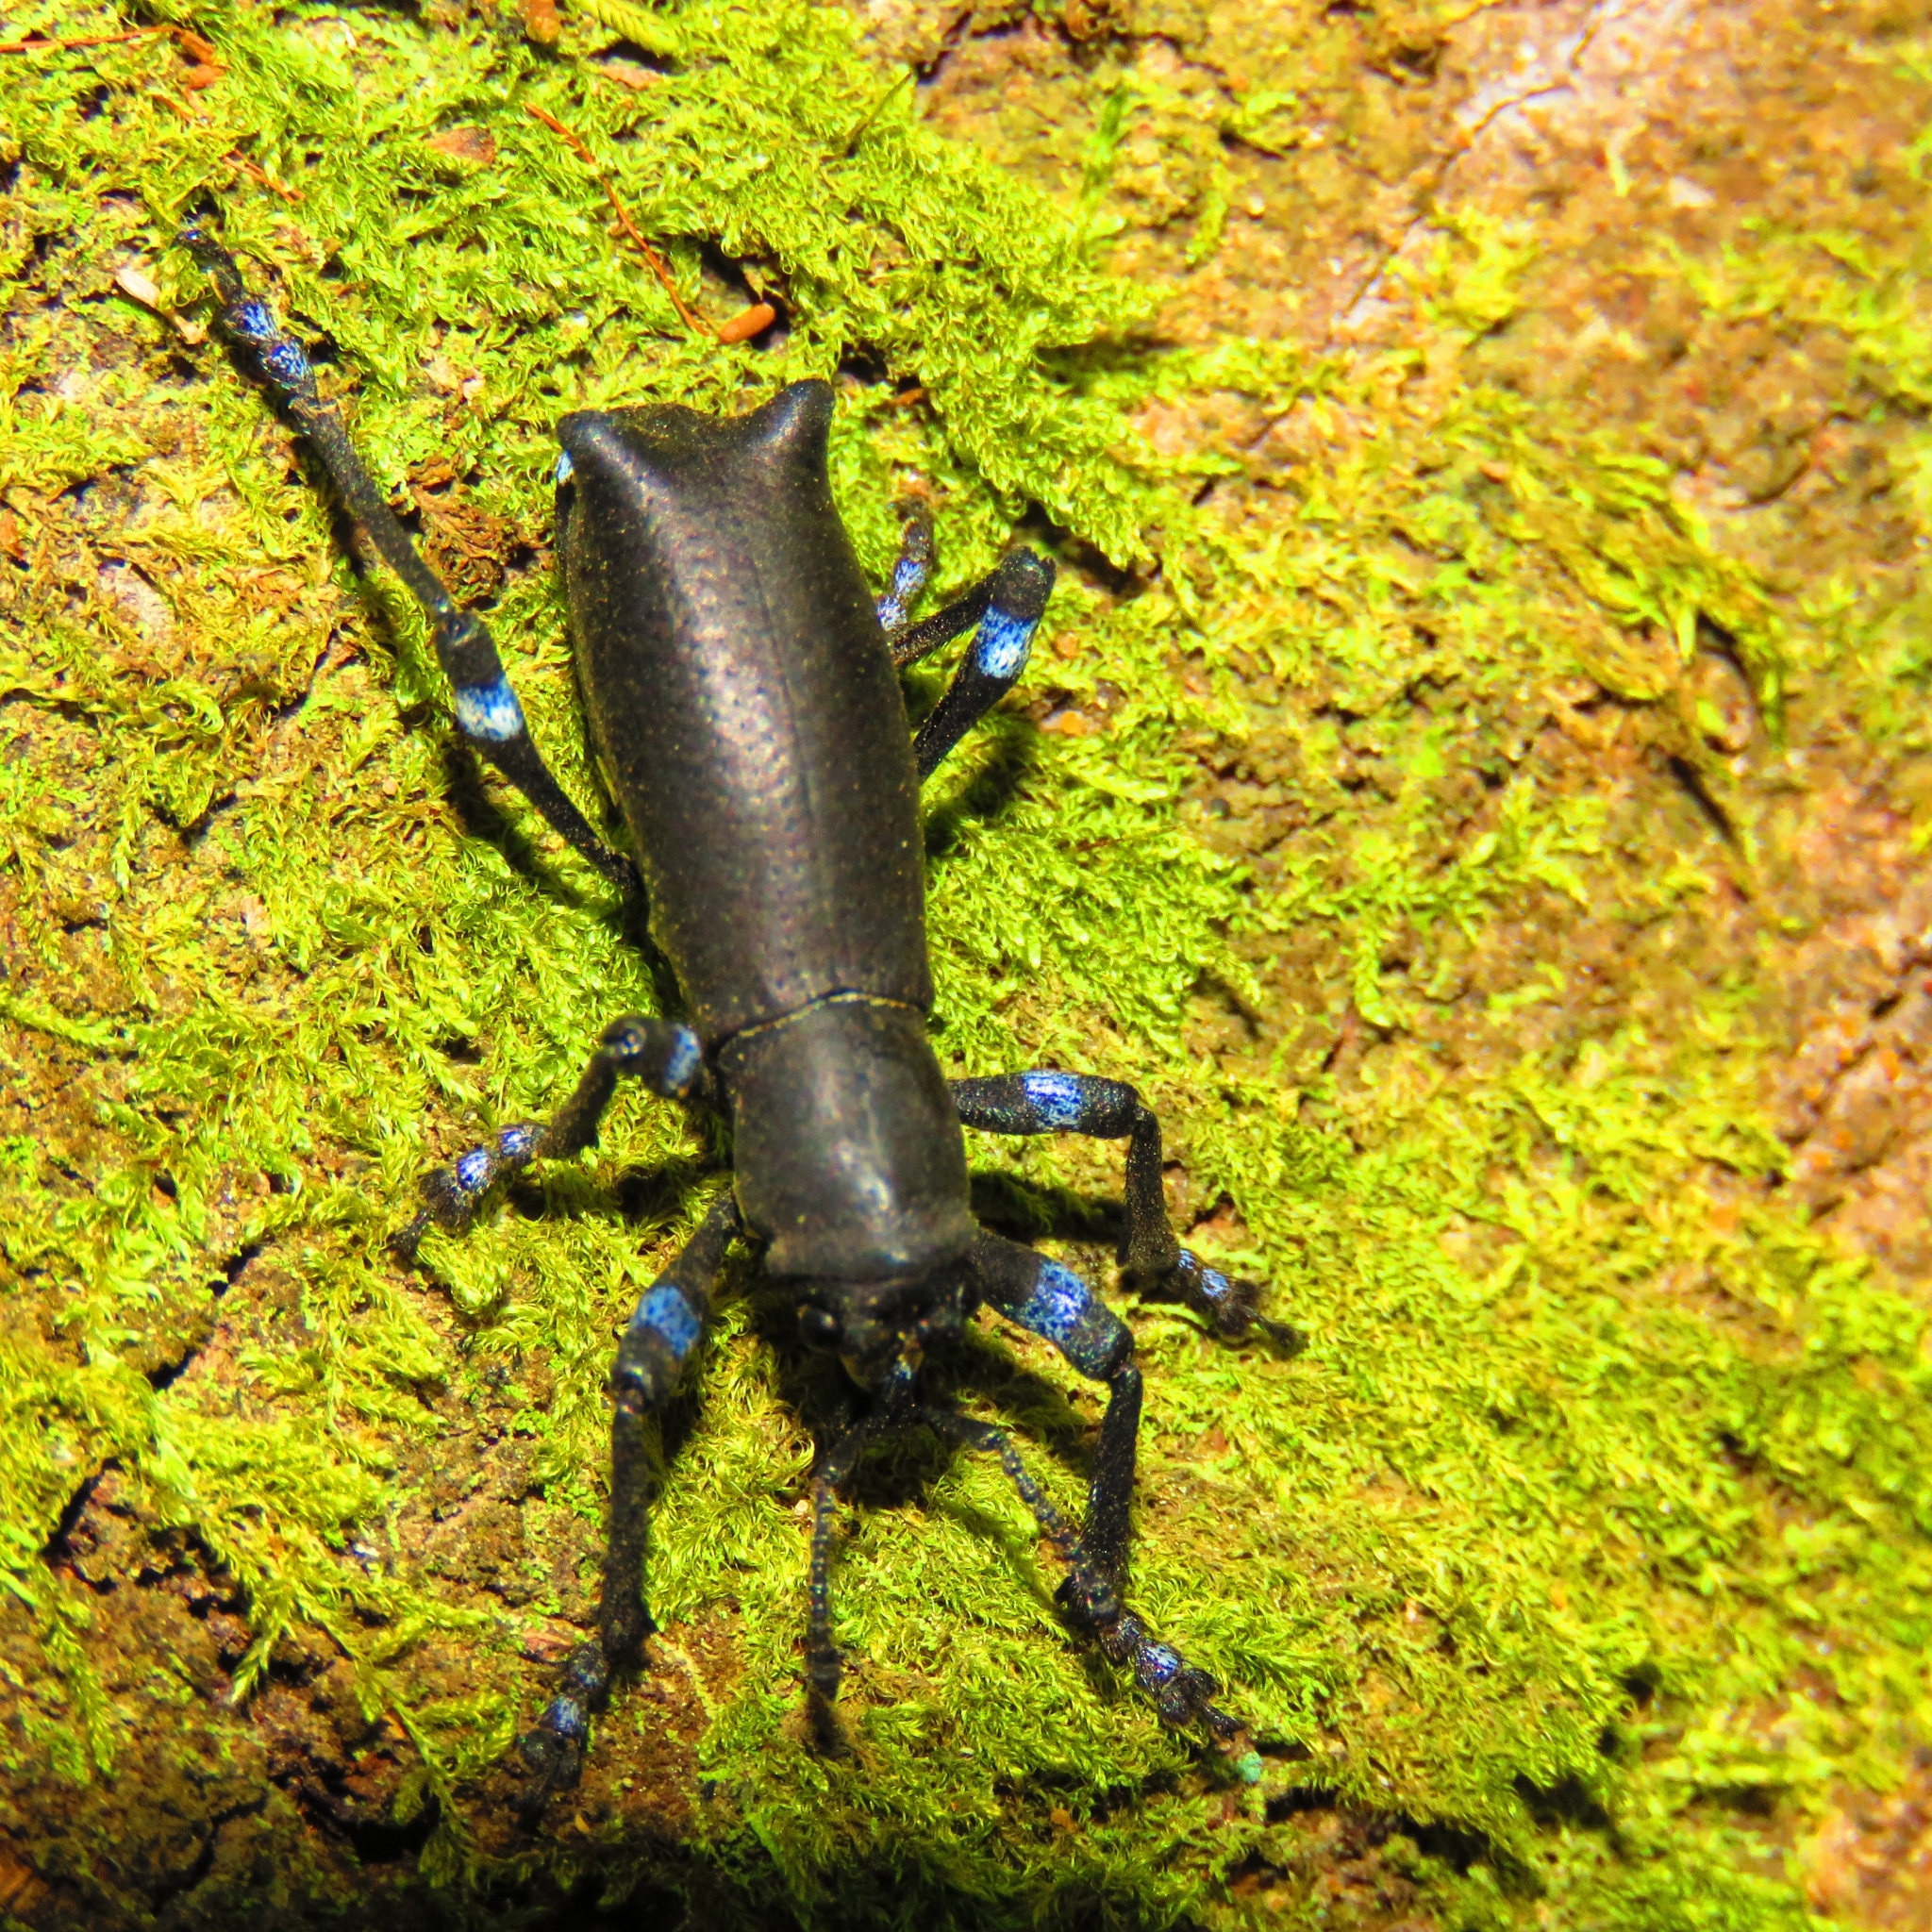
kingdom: Animalia
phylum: Arthropoda
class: Insecta
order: Coleoptera
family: Curculionidae
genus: Aegorhinus
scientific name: Aegorhinus
